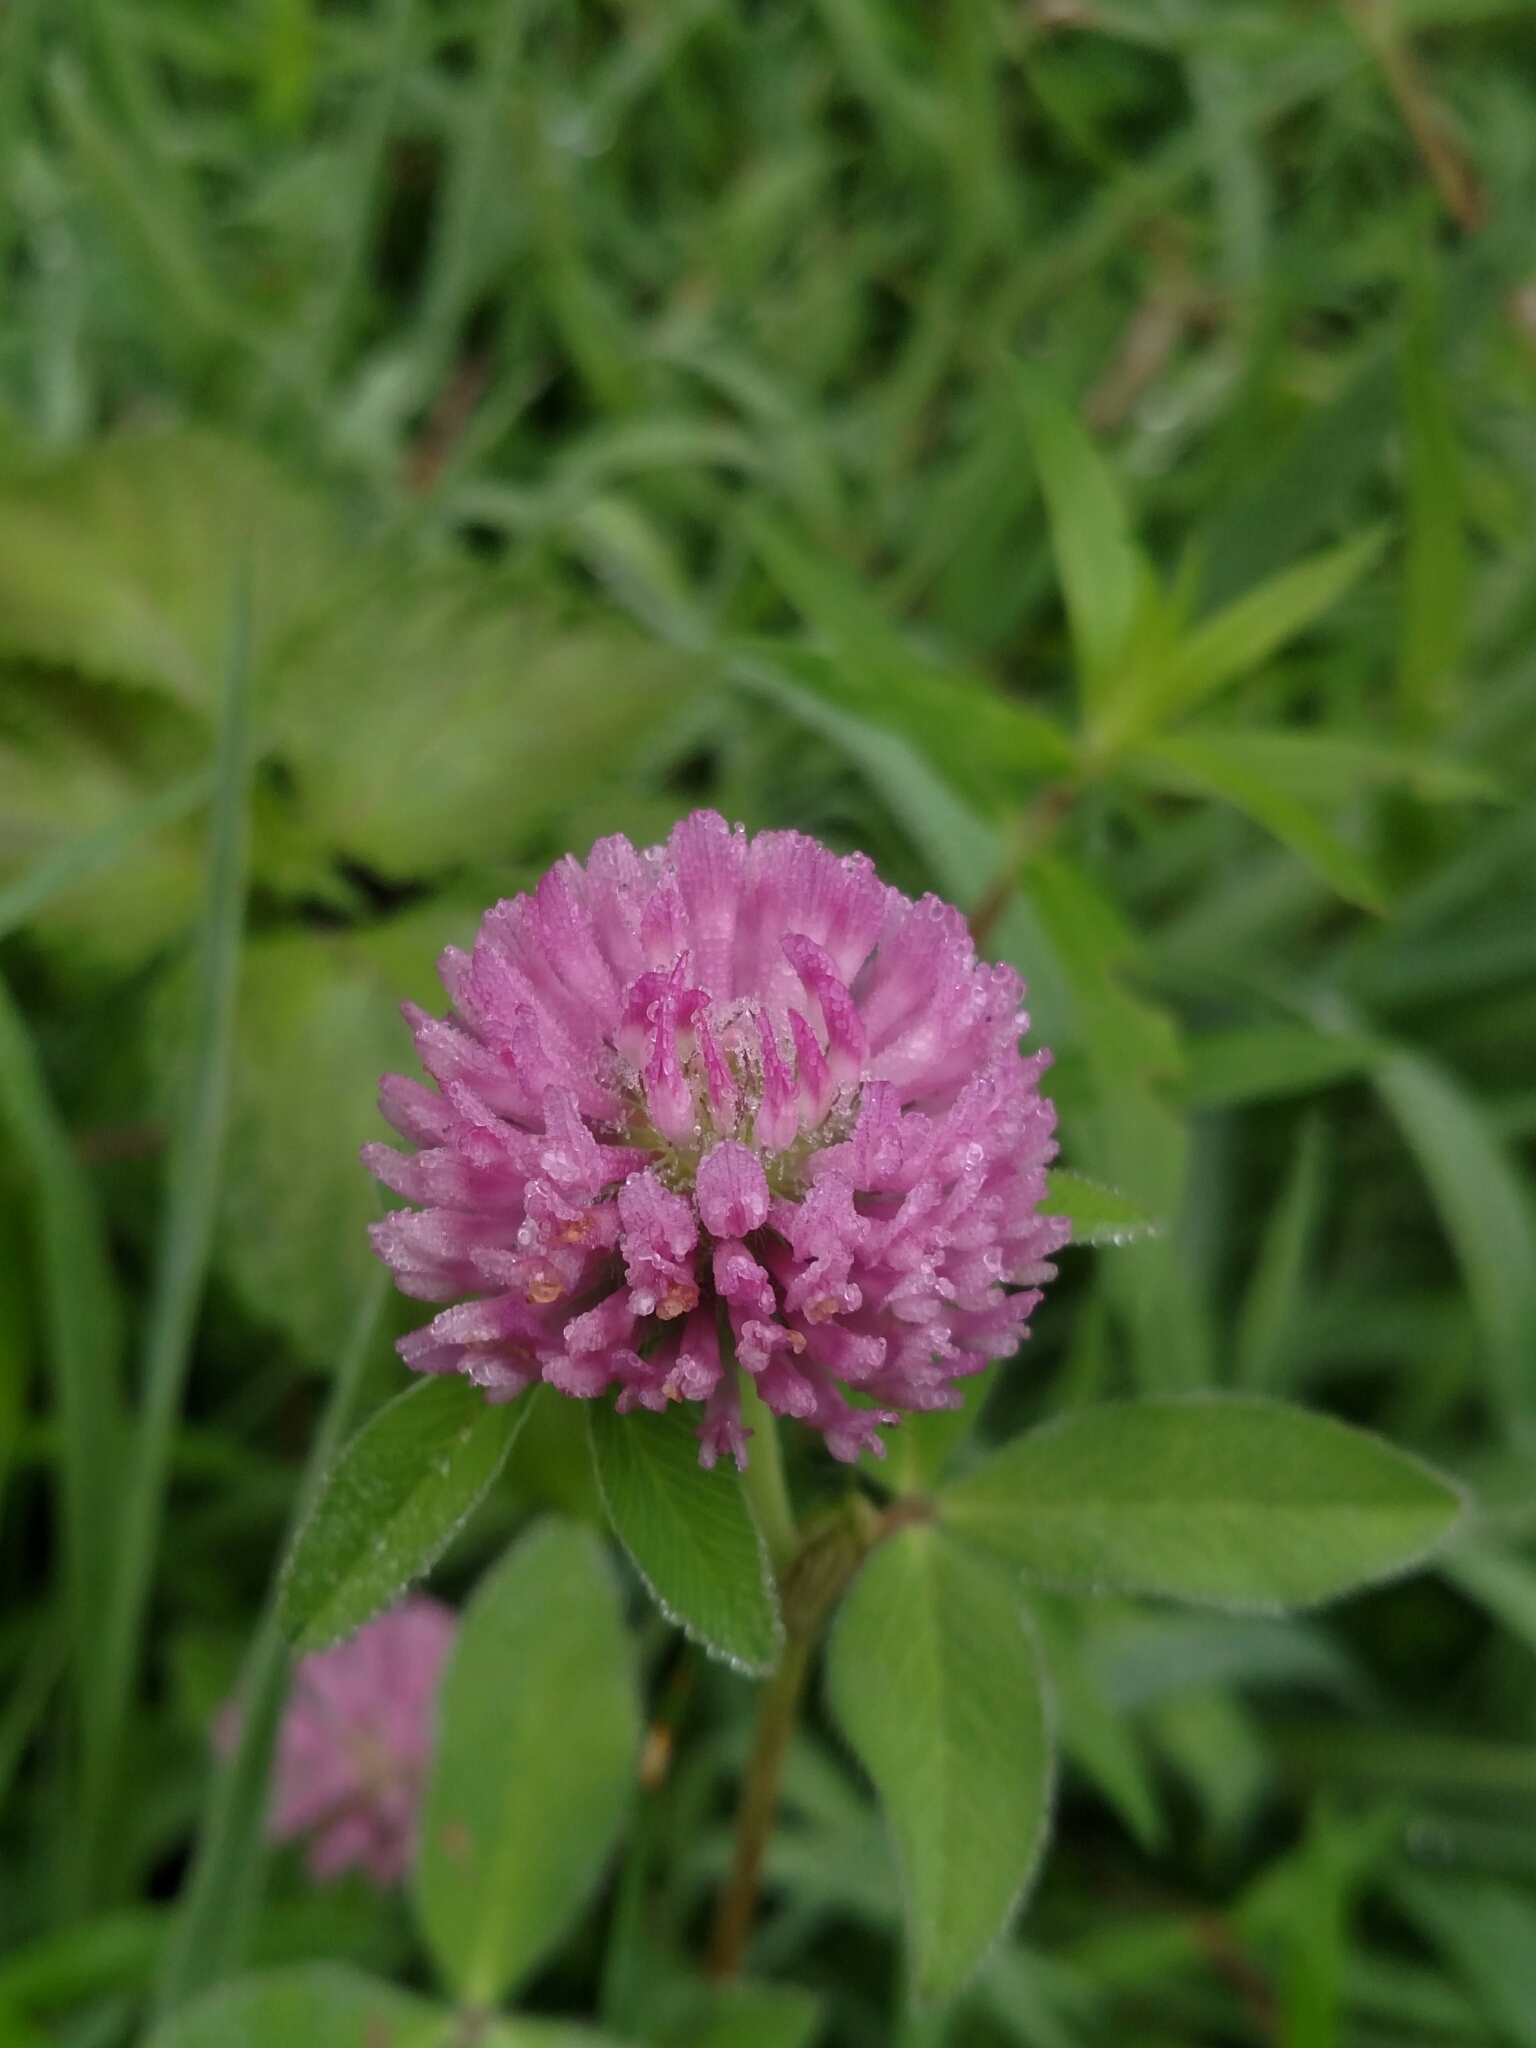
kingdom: Plantae
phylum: Tracheophyta
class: Magnoliopsida
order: Fabales
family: Fabaceae
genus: Trifolium
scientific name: Trifolium pratense
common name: Red clover
